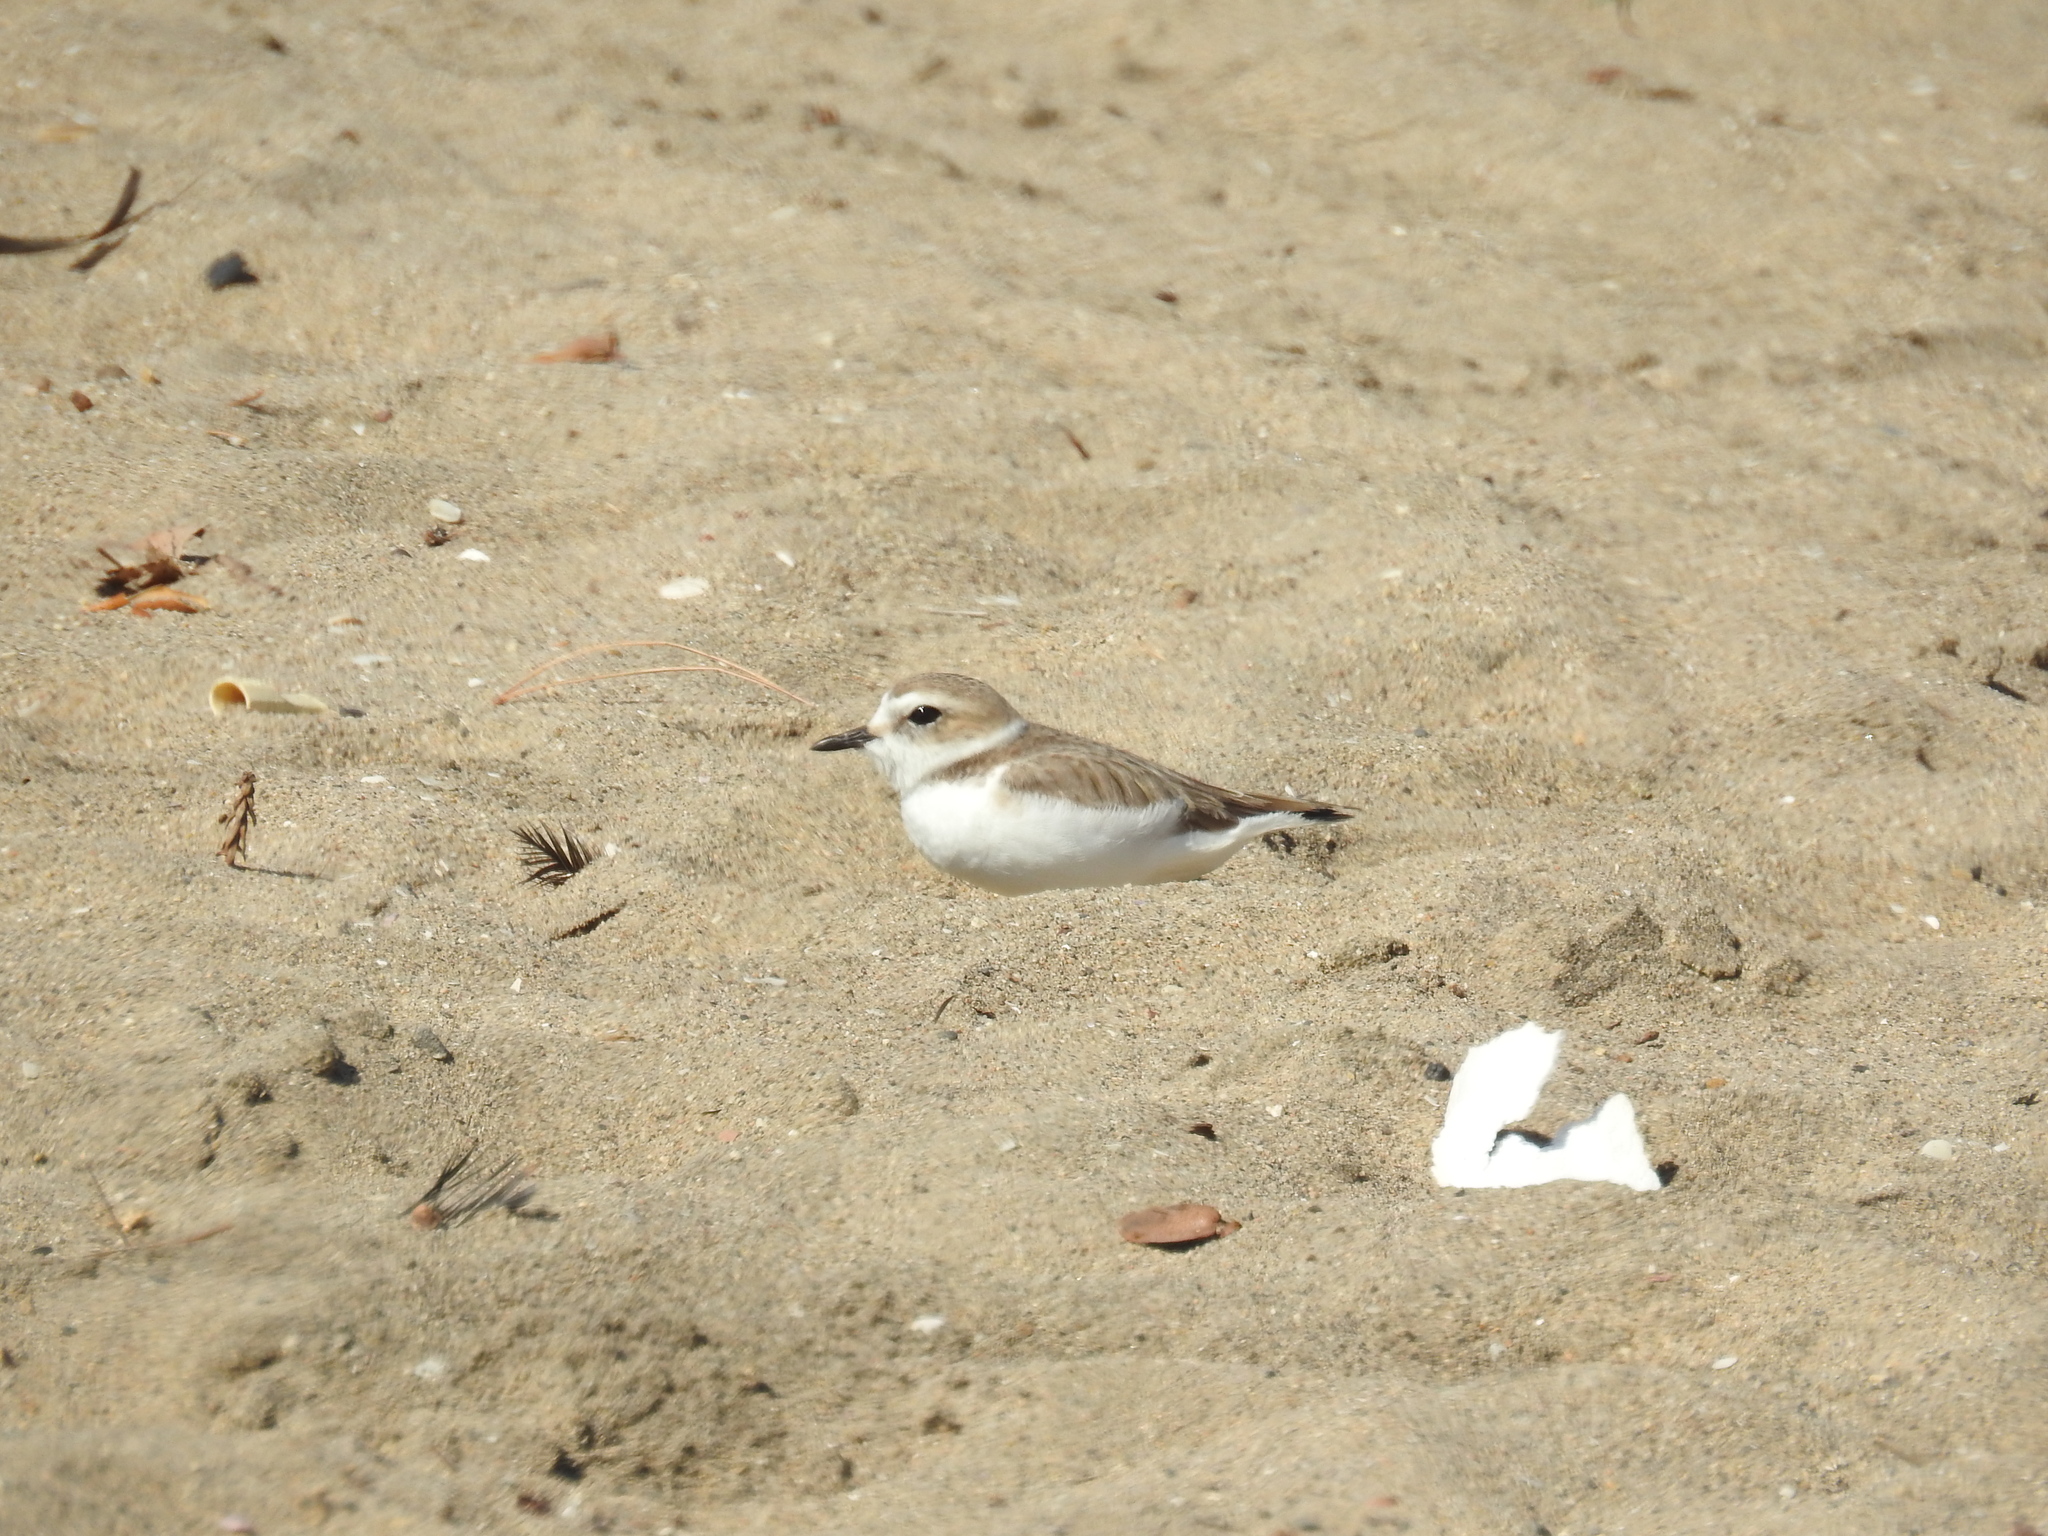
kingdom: Animalia
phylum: Chordata
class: Aves
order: Charadriiformes
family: Charadriidae
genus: Anarhynchus
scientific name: Anarhynchus
